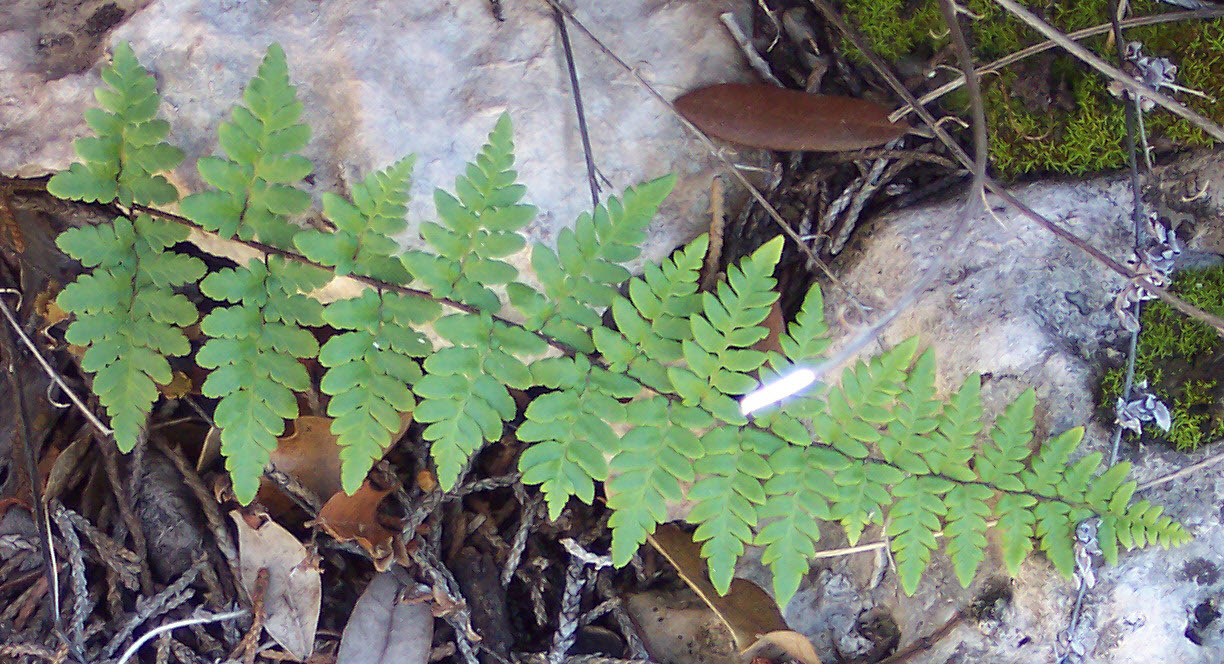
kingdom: Plantae
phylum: Tracheophyta
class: Polypodiopsida
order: Polypodiales
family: Pteridaceae
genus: Myriopteris
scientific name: Myriopteris alabamensis
